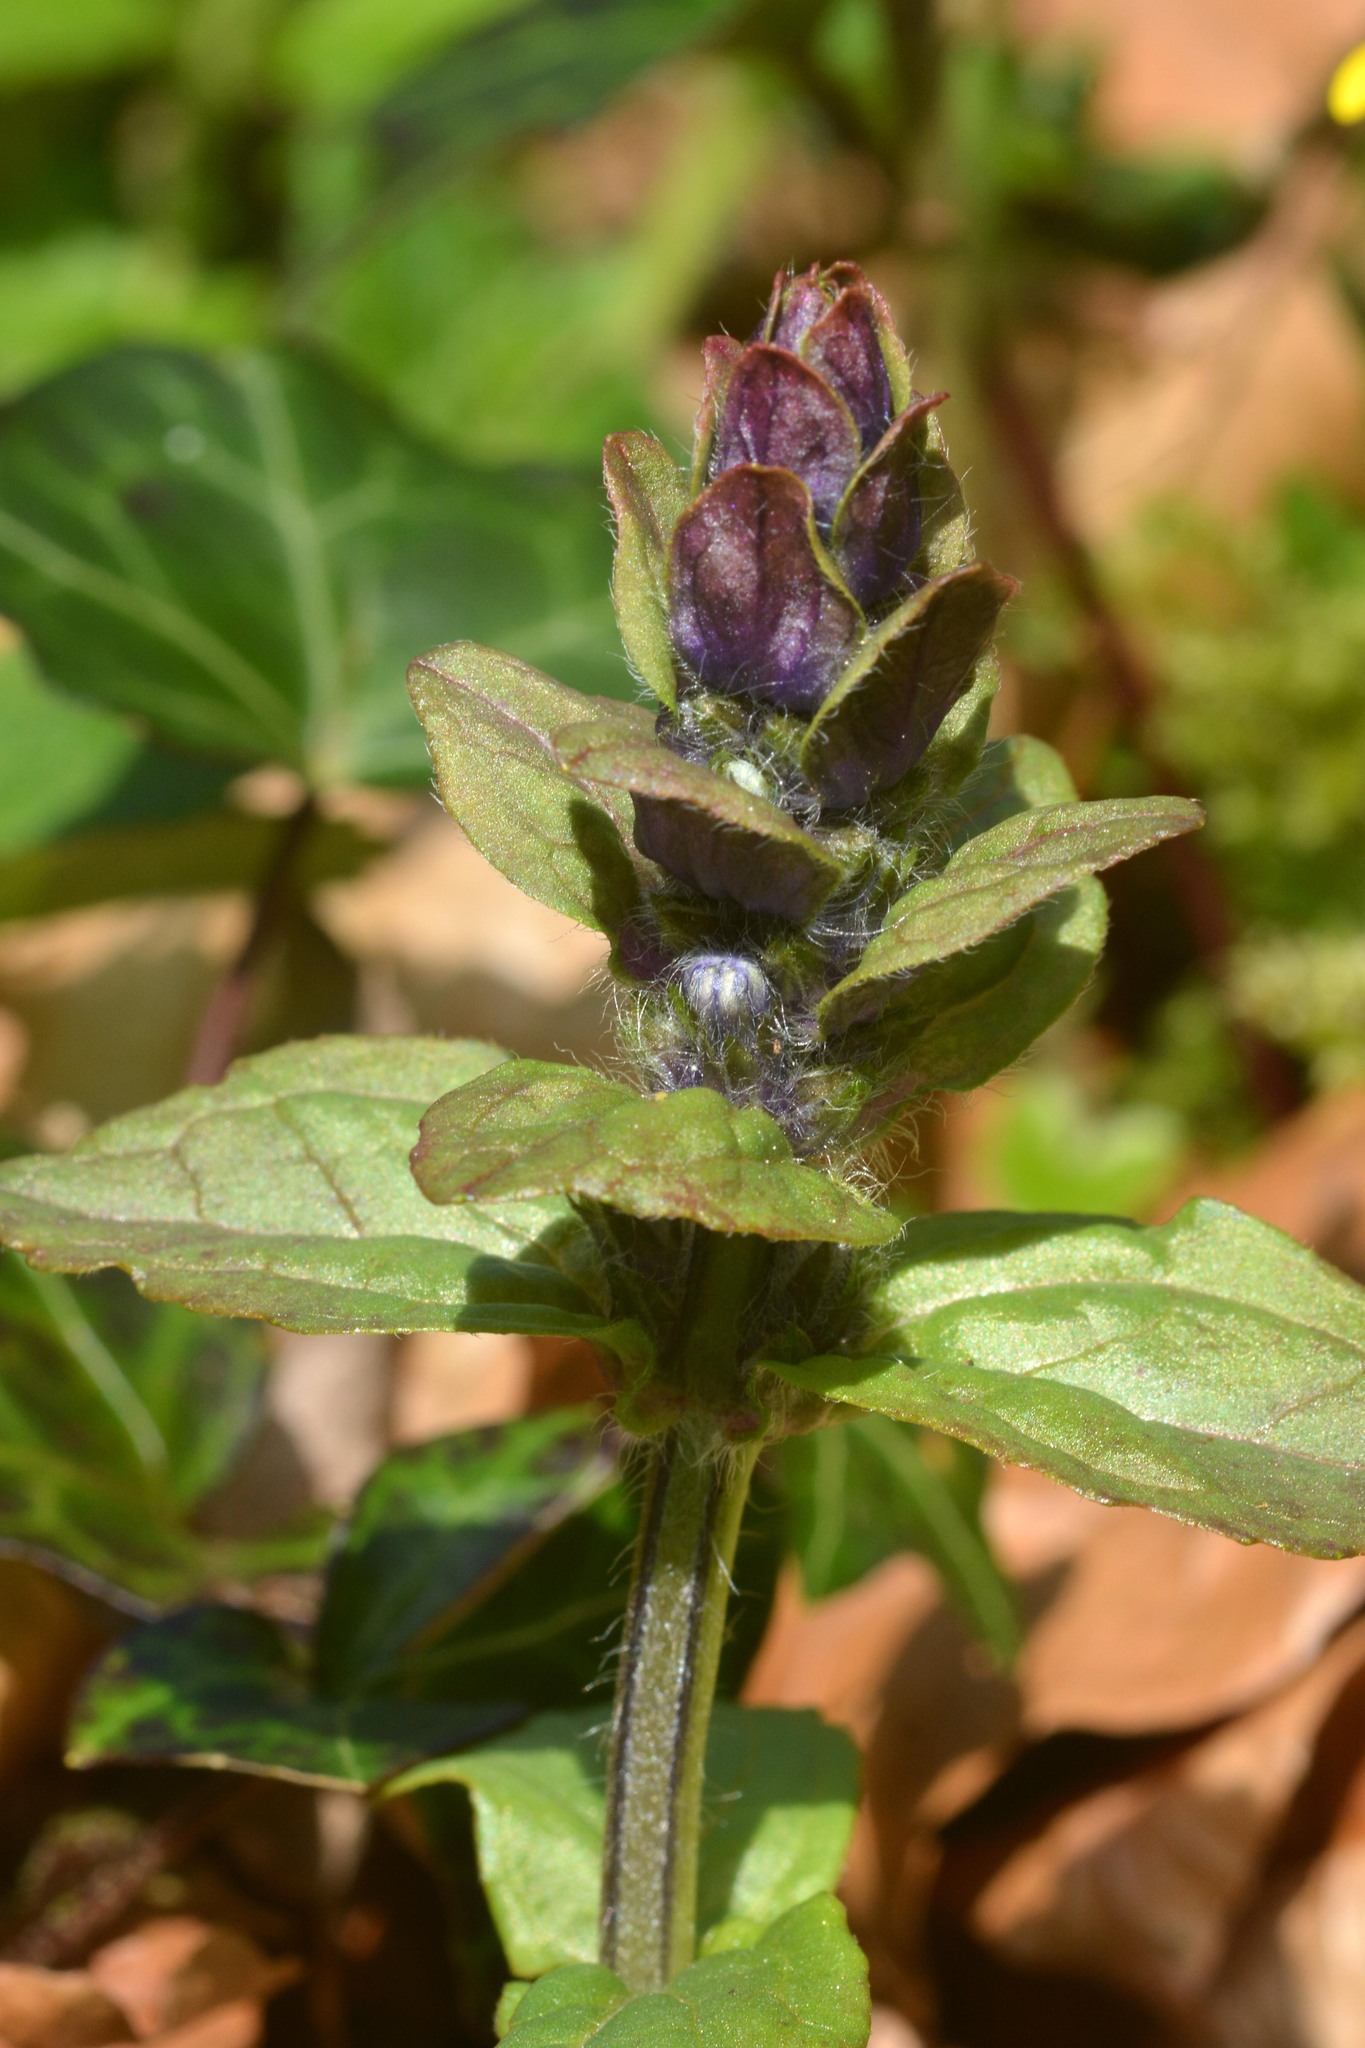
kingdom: Plantae
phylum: Tracheophyta
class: Magnoliopsida
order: Lamiales
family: Lamiaceae
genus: Ajuga
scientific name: Ajuga reptans
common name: Bugle
